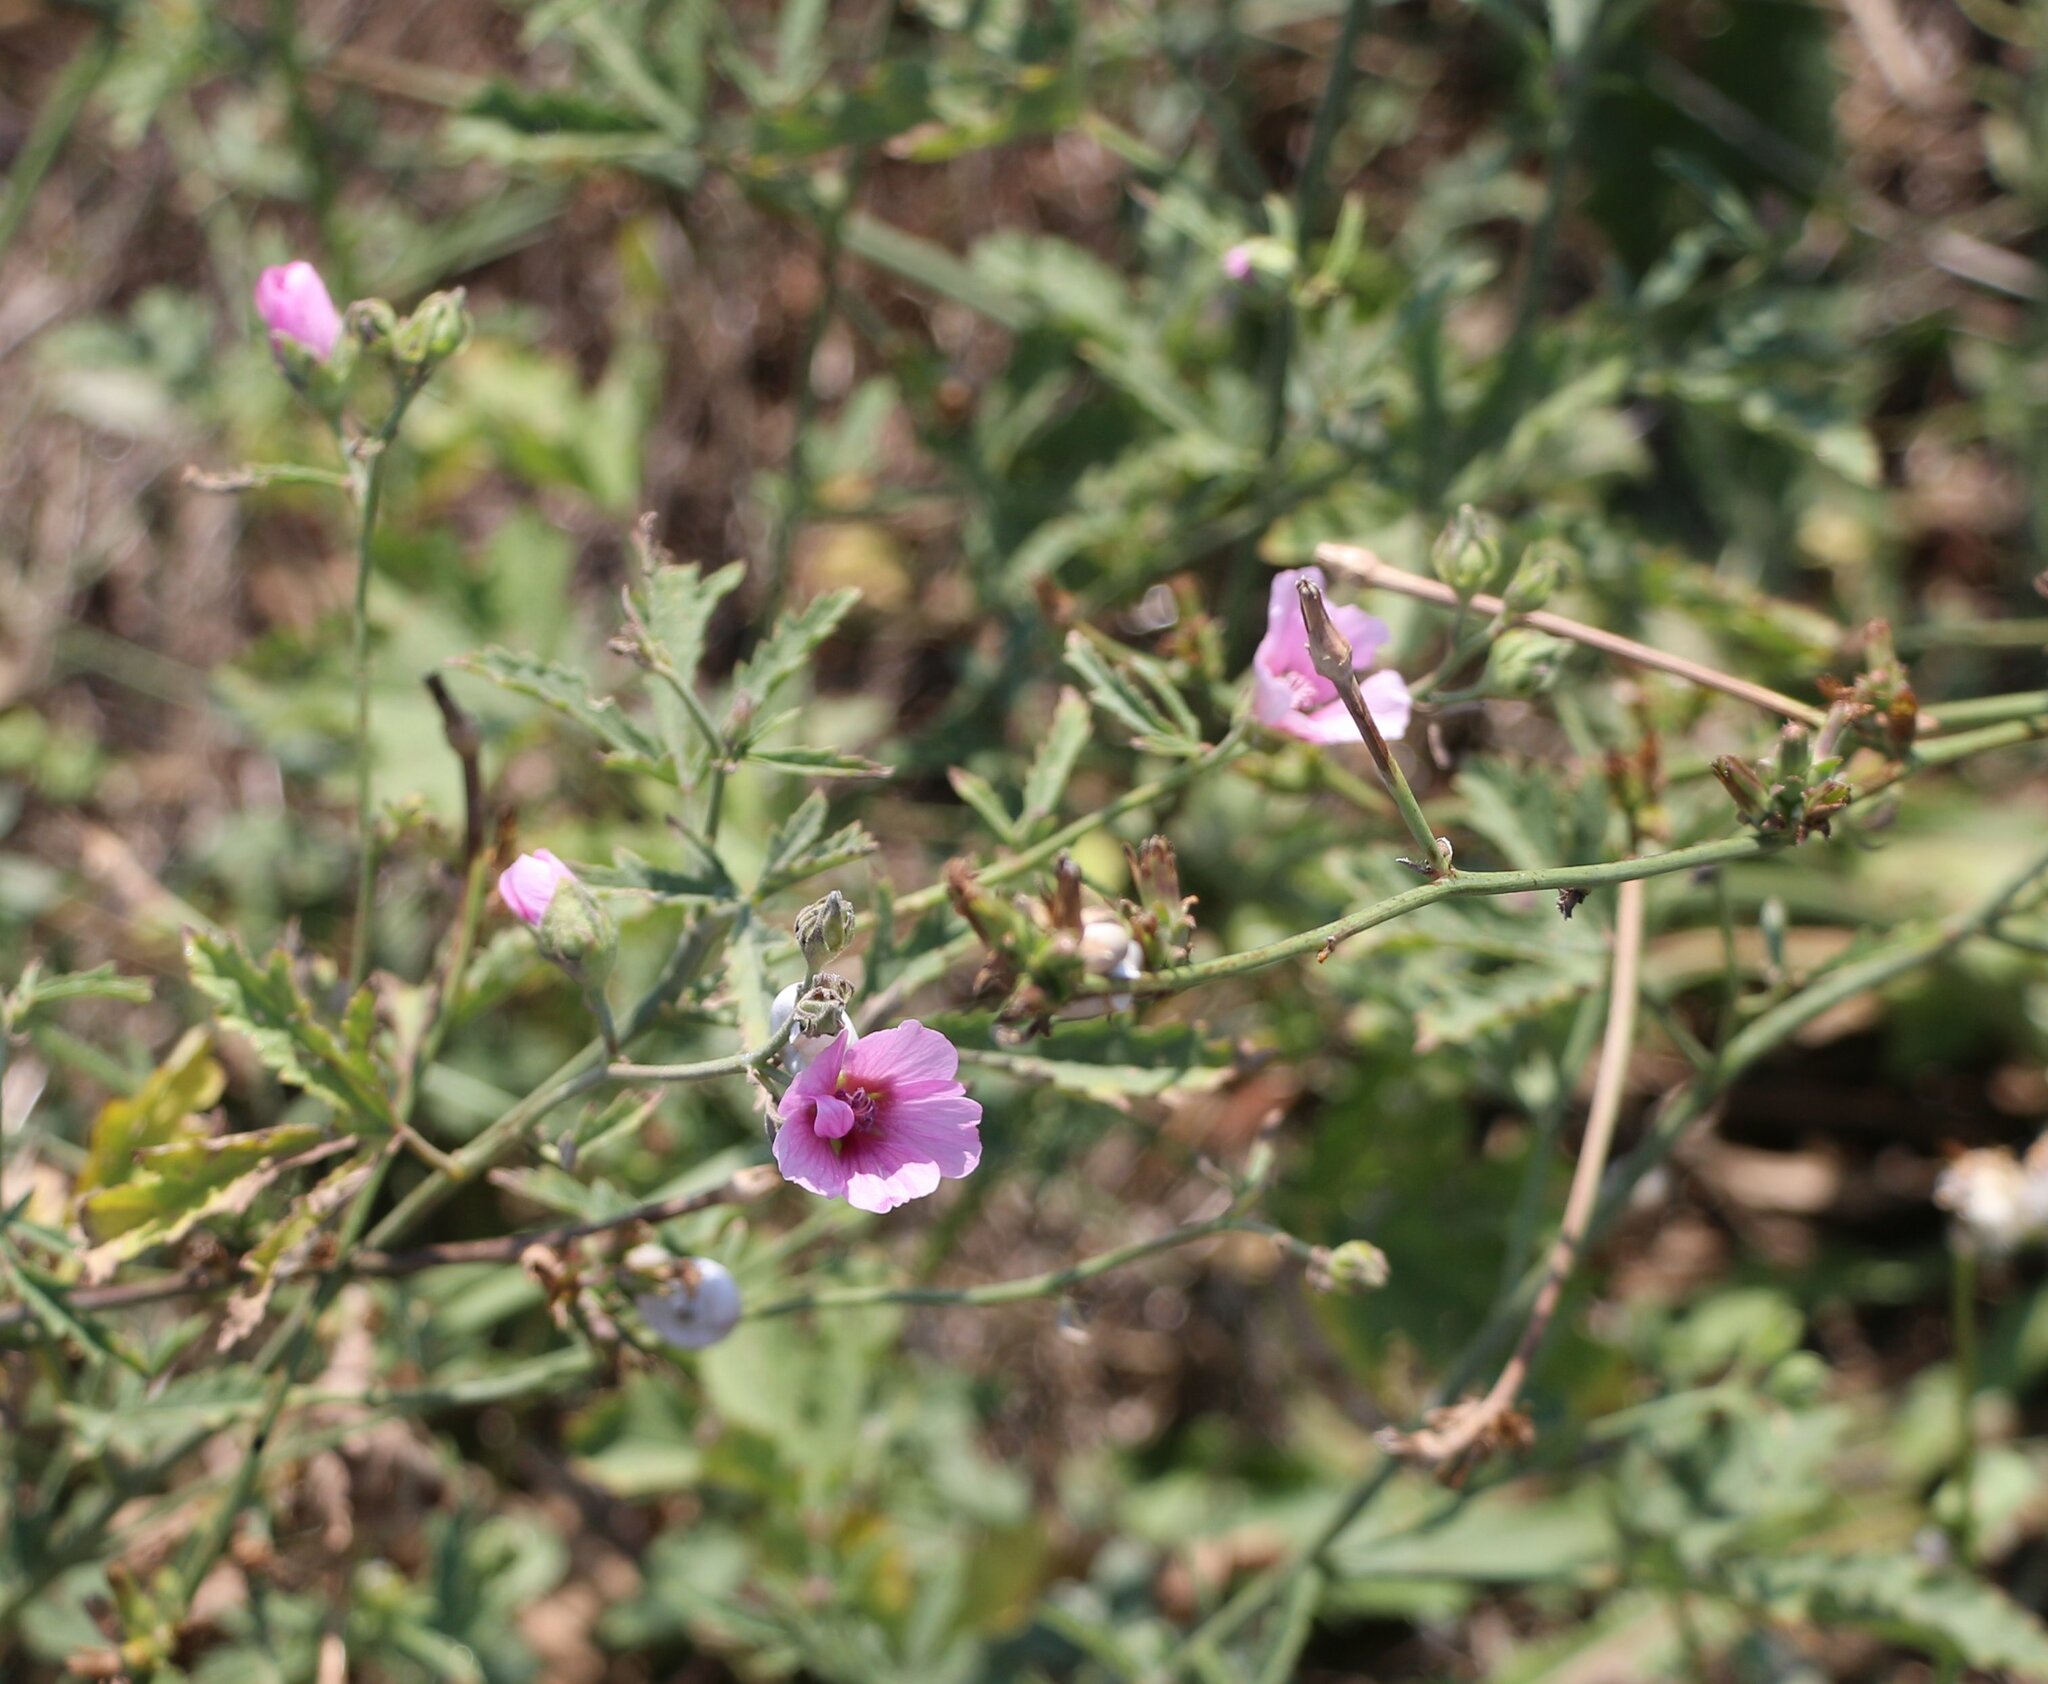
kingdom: Plantae
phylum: Tracheophyta
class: Magnoliopsida
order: Malvales
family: Malvaceae
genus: Althaea
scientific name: Althaea taurinensis
